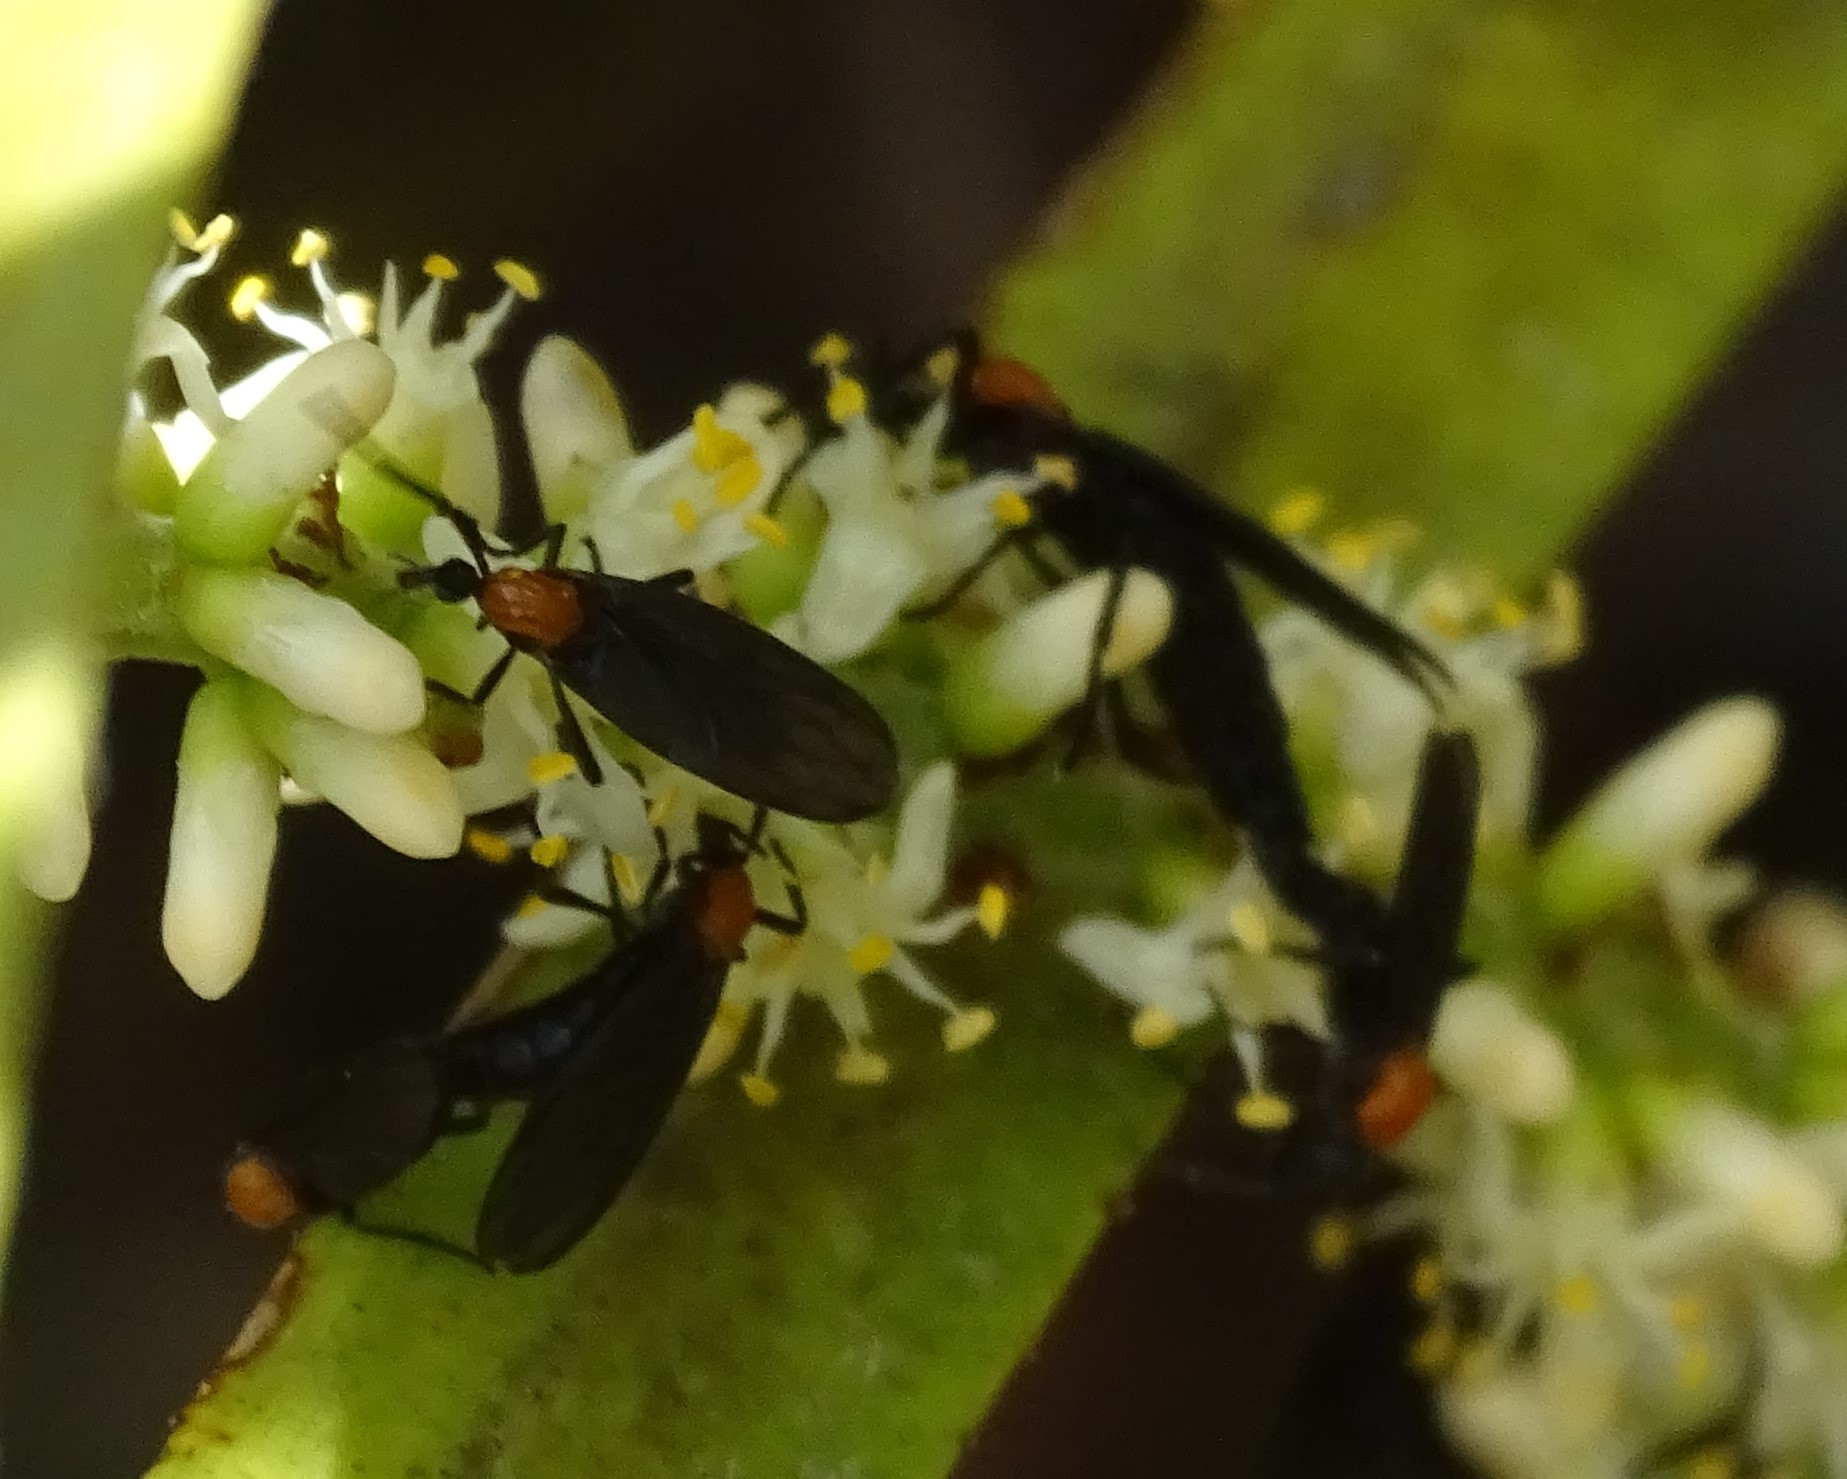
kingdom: Animalia
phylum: Arthropoda
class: Insecta
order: Diptera
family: Bibionidae
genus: Plecia
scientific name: Plecia nearctica
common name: March fly
